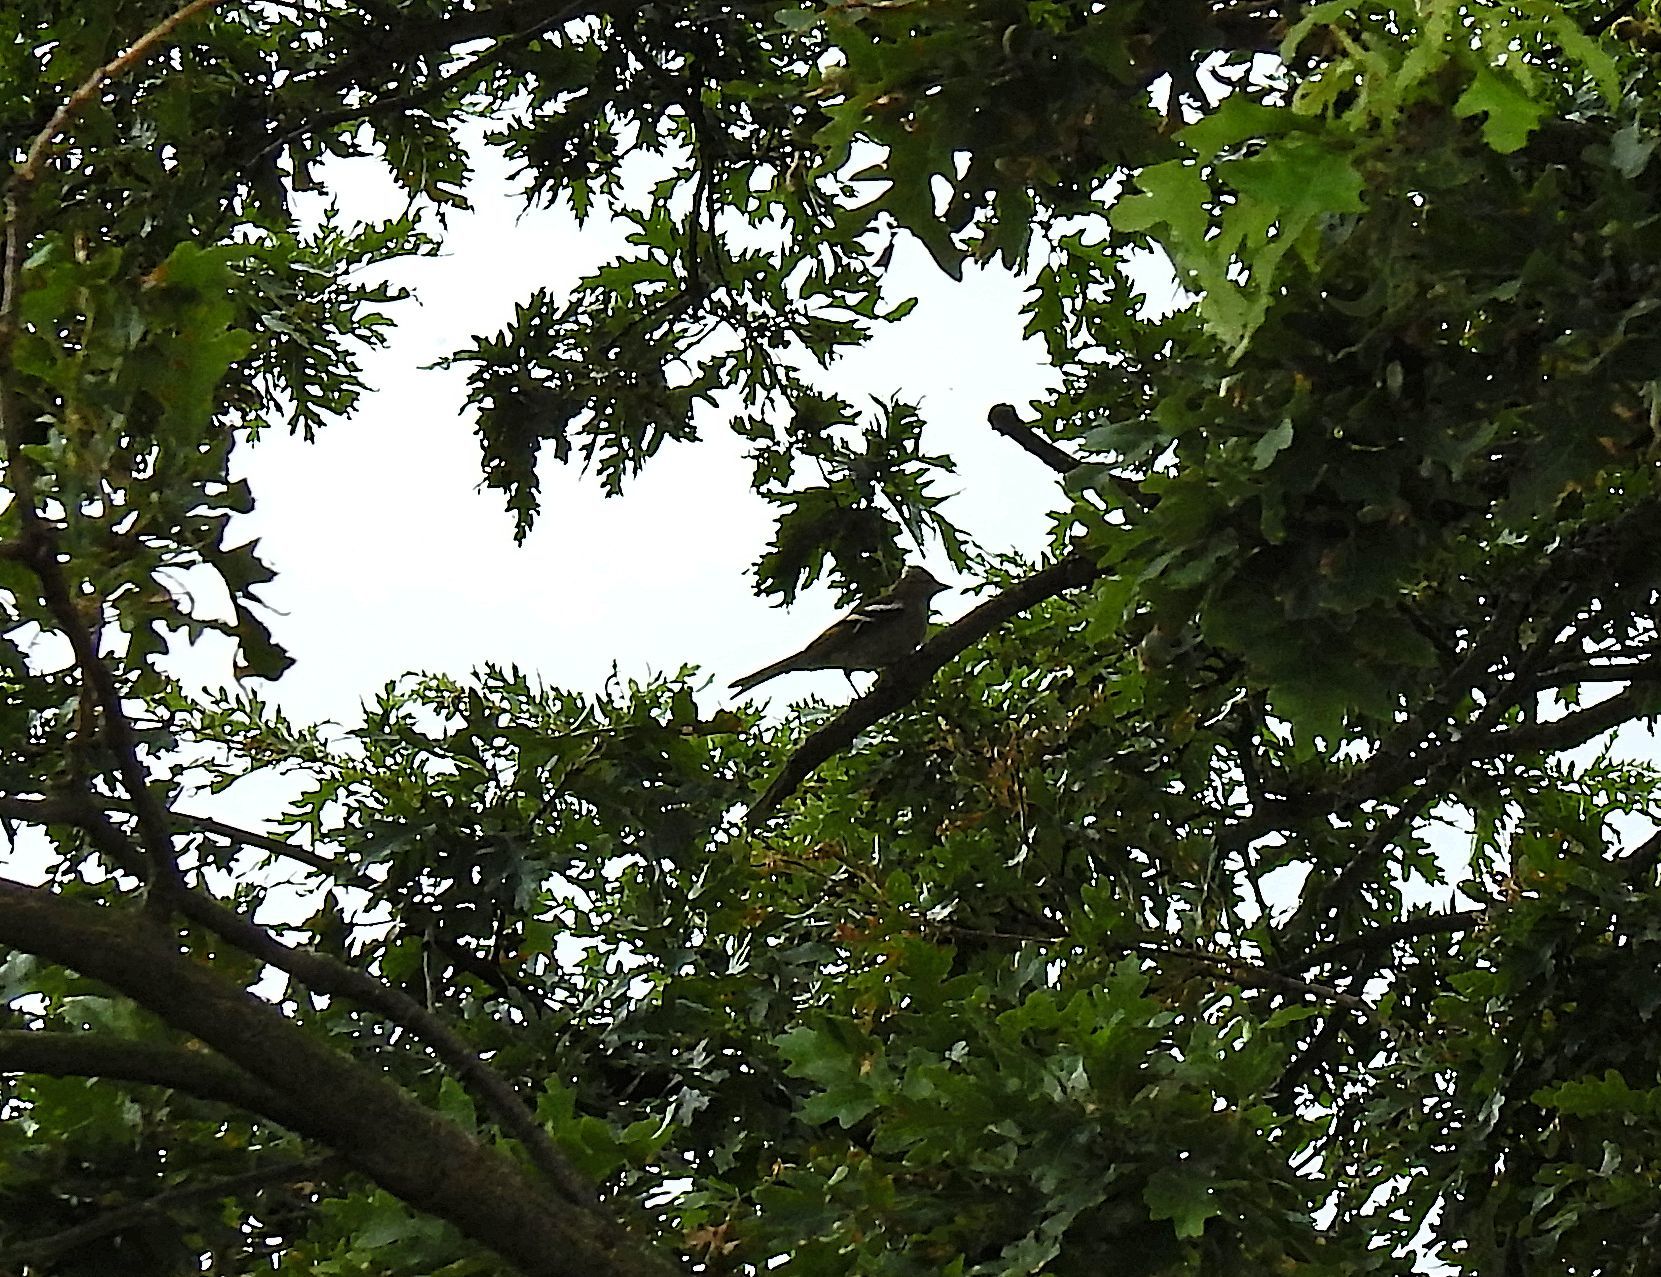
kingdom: Animalia
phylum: Chordata
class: Aves
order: Passeriformes
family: Fringillidae
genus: Fringilla
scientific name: Fringilla coelebs
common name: Common chaffinch
